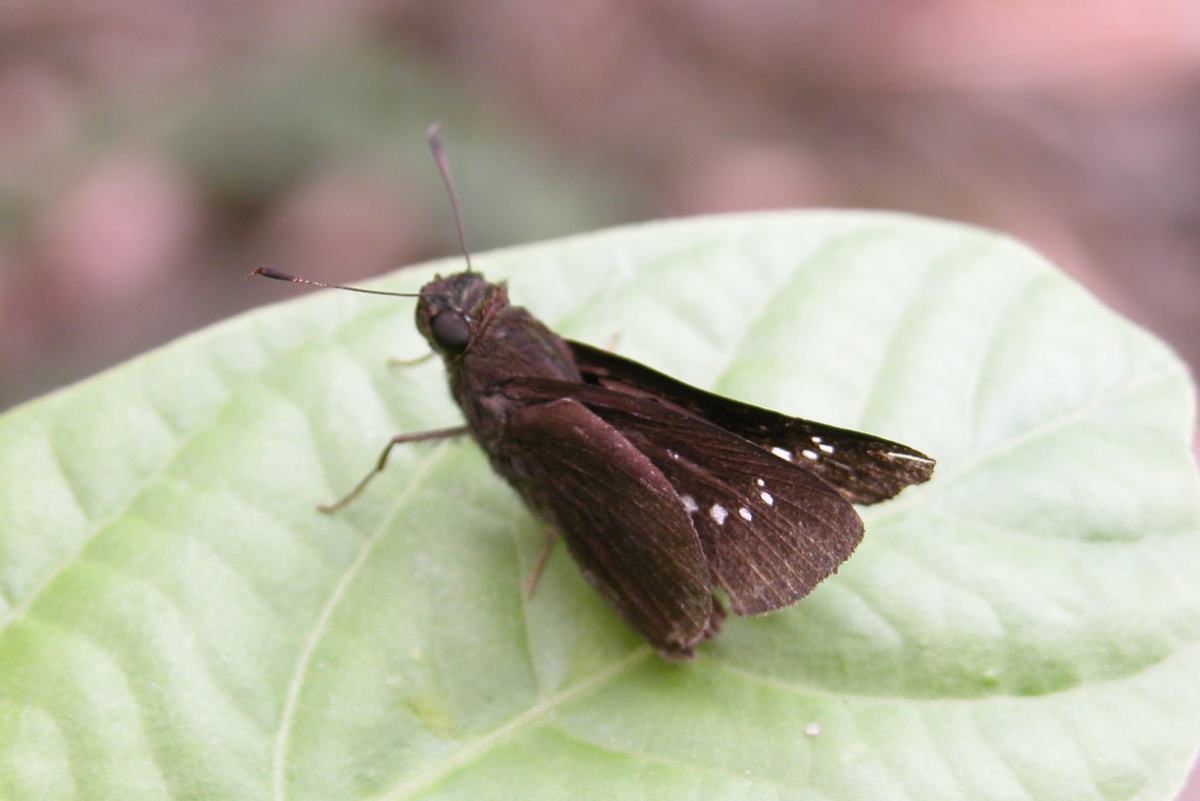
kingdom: Animalia
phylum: Arthropoda
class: Insecta
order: Lepidoptera
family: Hesperiidae
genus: Caltoris
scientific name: Caltoris philippina
